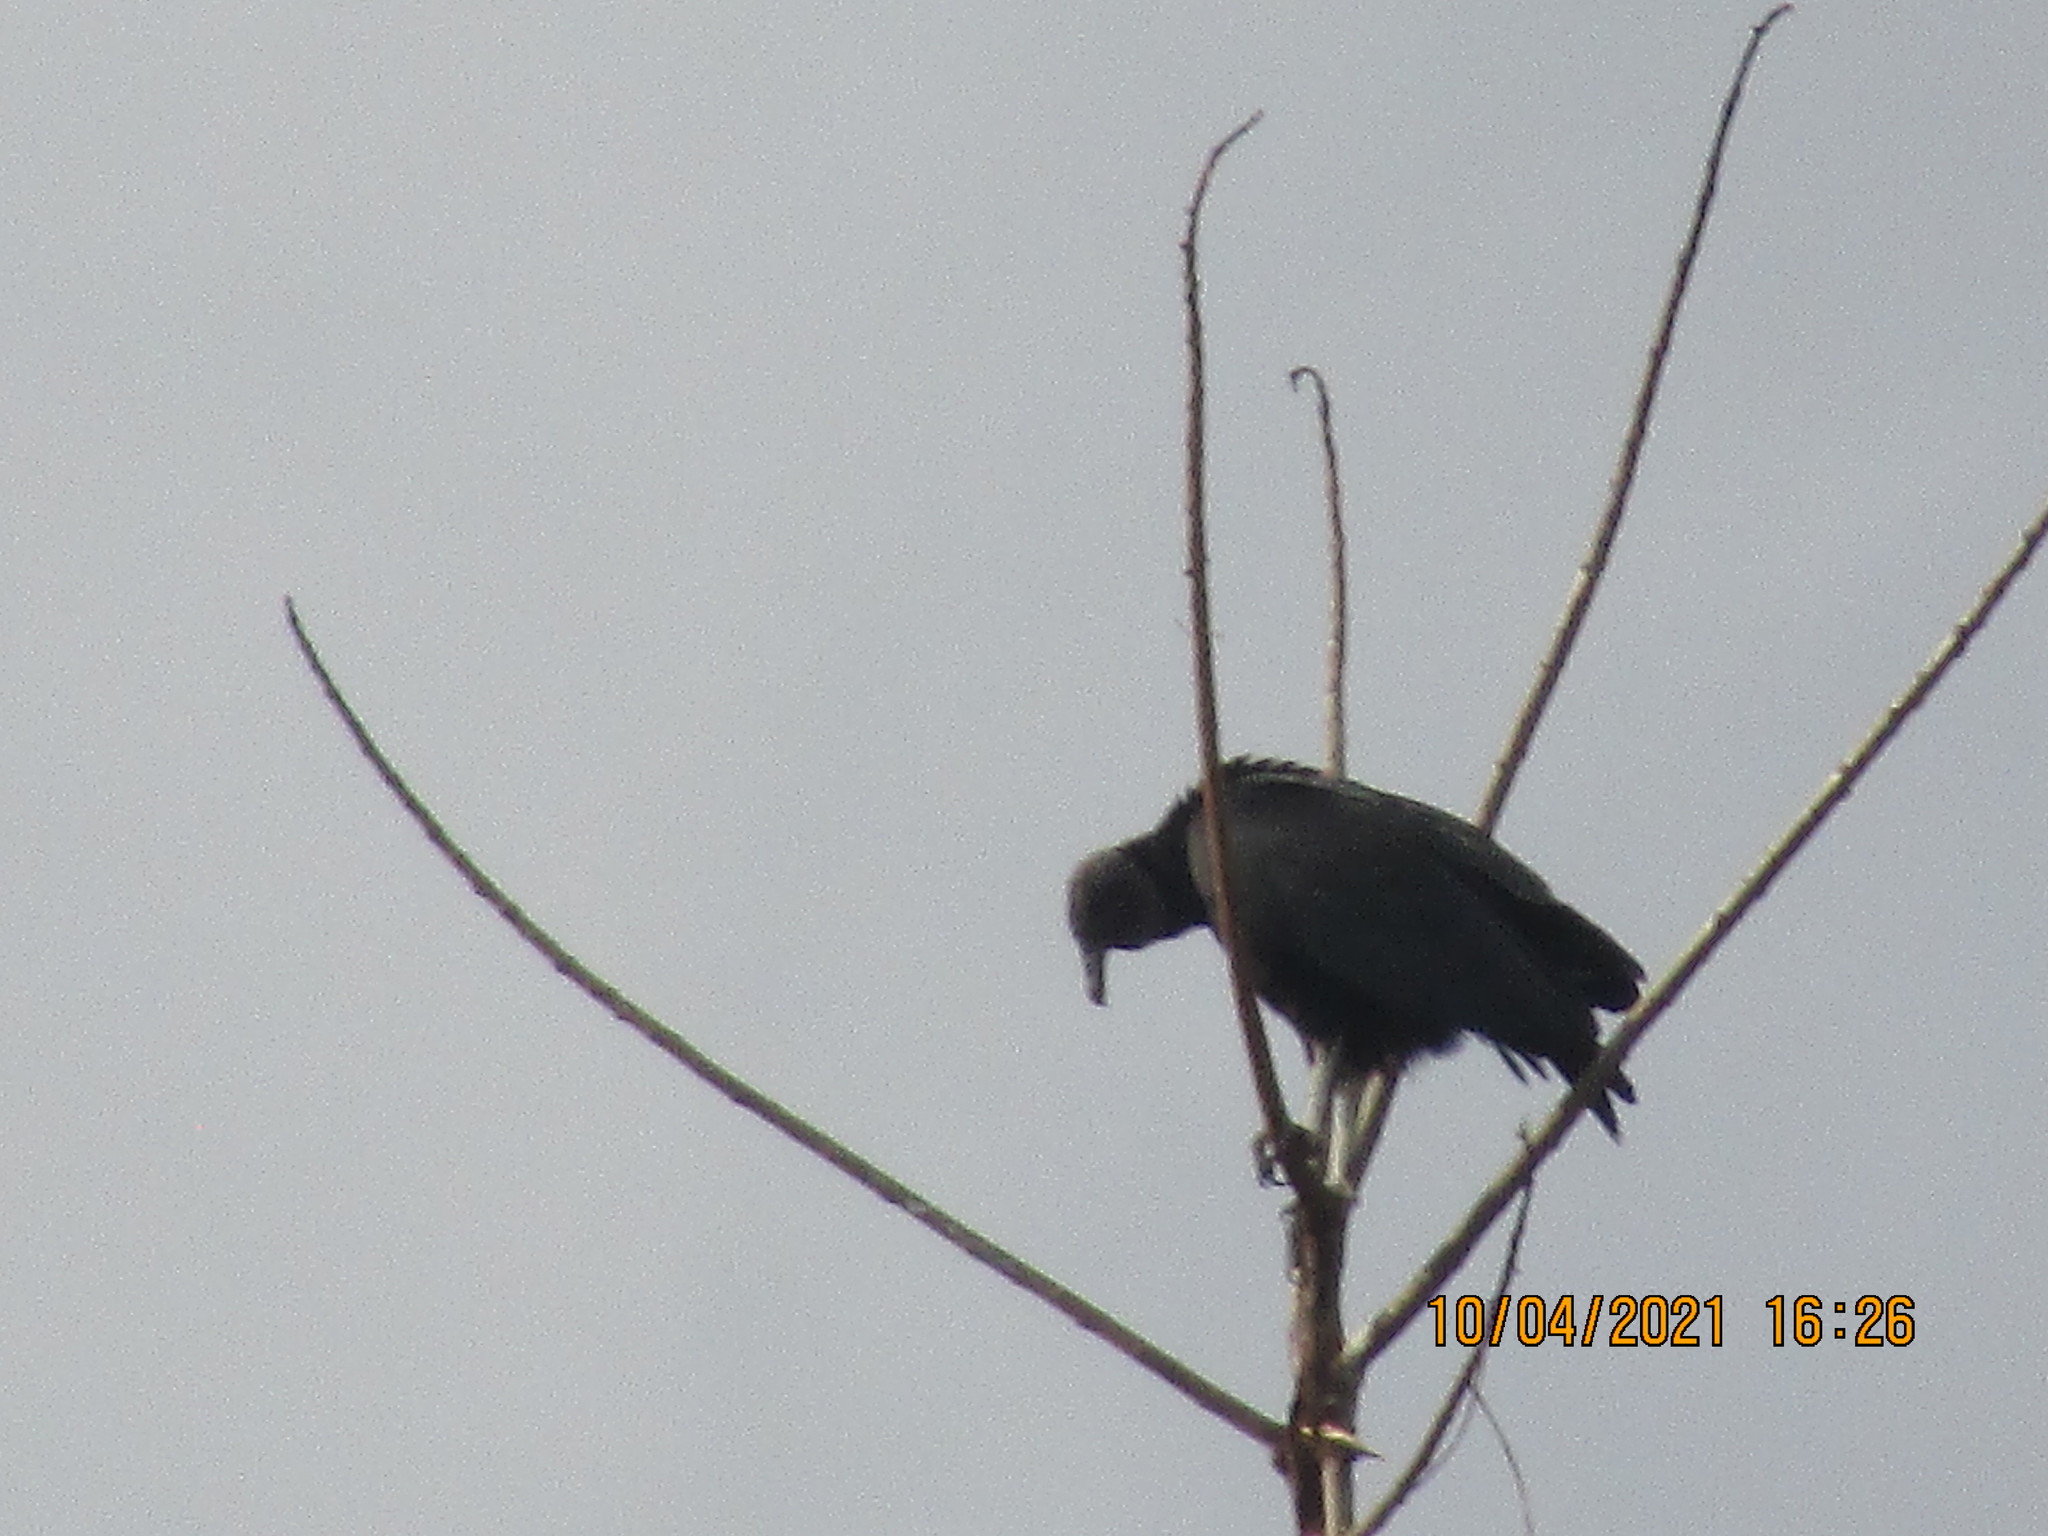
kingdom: Animalia
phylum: Chordata
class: Aves
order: Accipitriformes
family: Cathartidae
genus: Coragyps
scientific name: Coragyps atratus
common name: Black vulture
